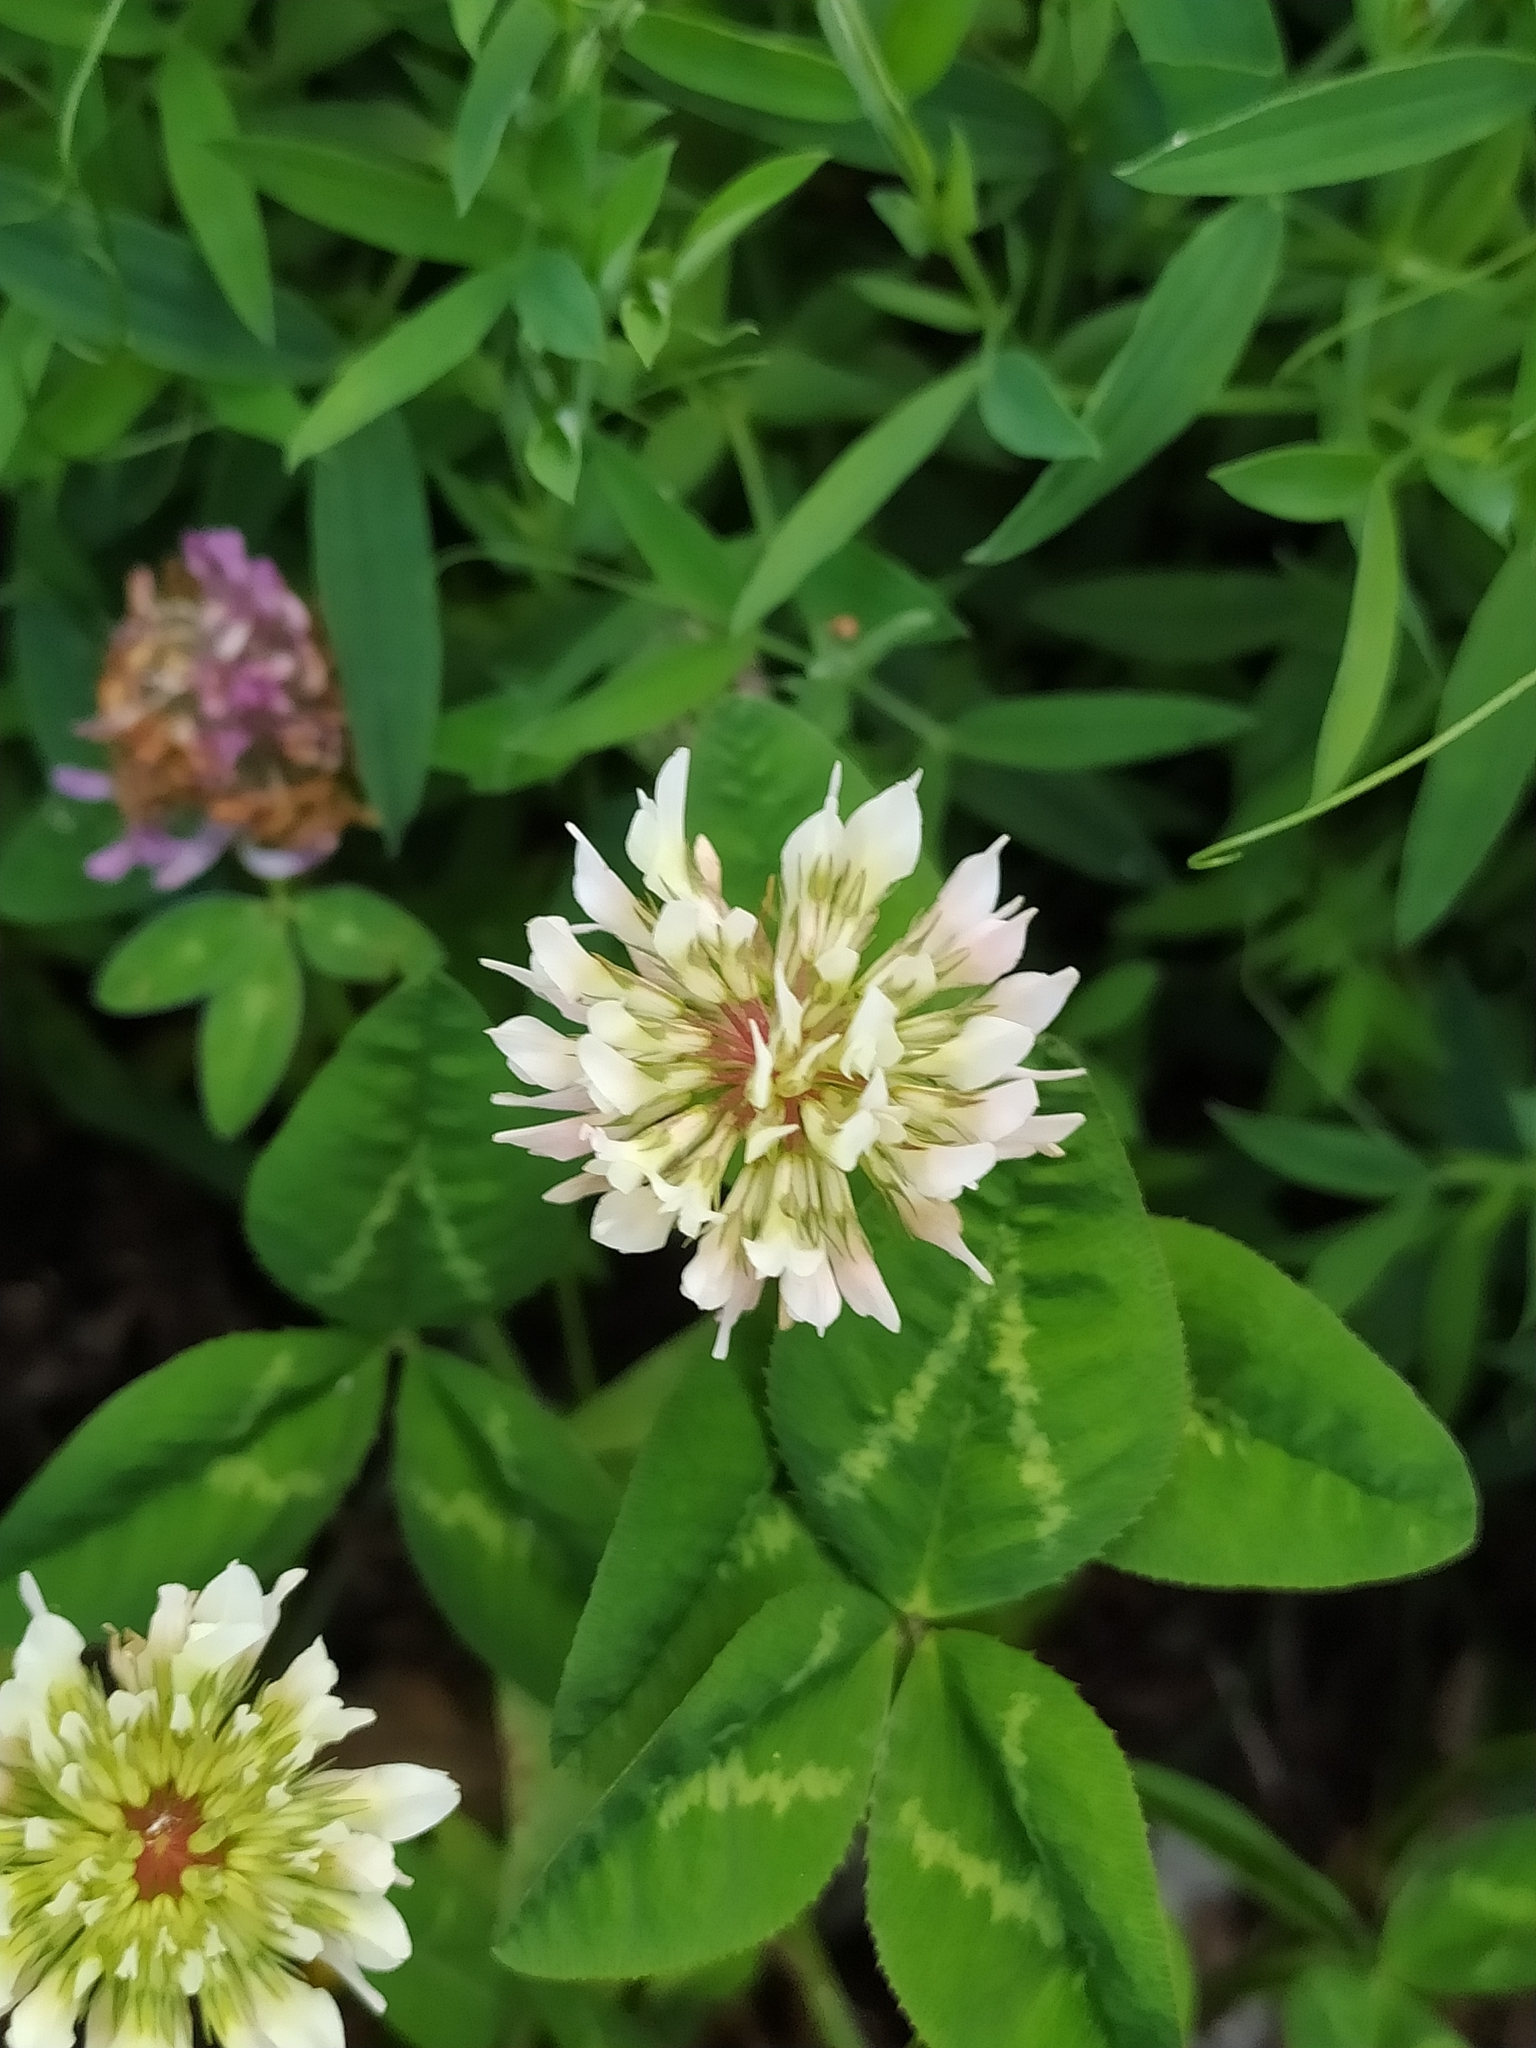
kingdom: Plantae
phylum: Tracheophyta
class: Magnoliopsida
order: Fabales
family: Fabaceae
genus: Trifolium
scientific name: Trifolium repens
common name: White clover
